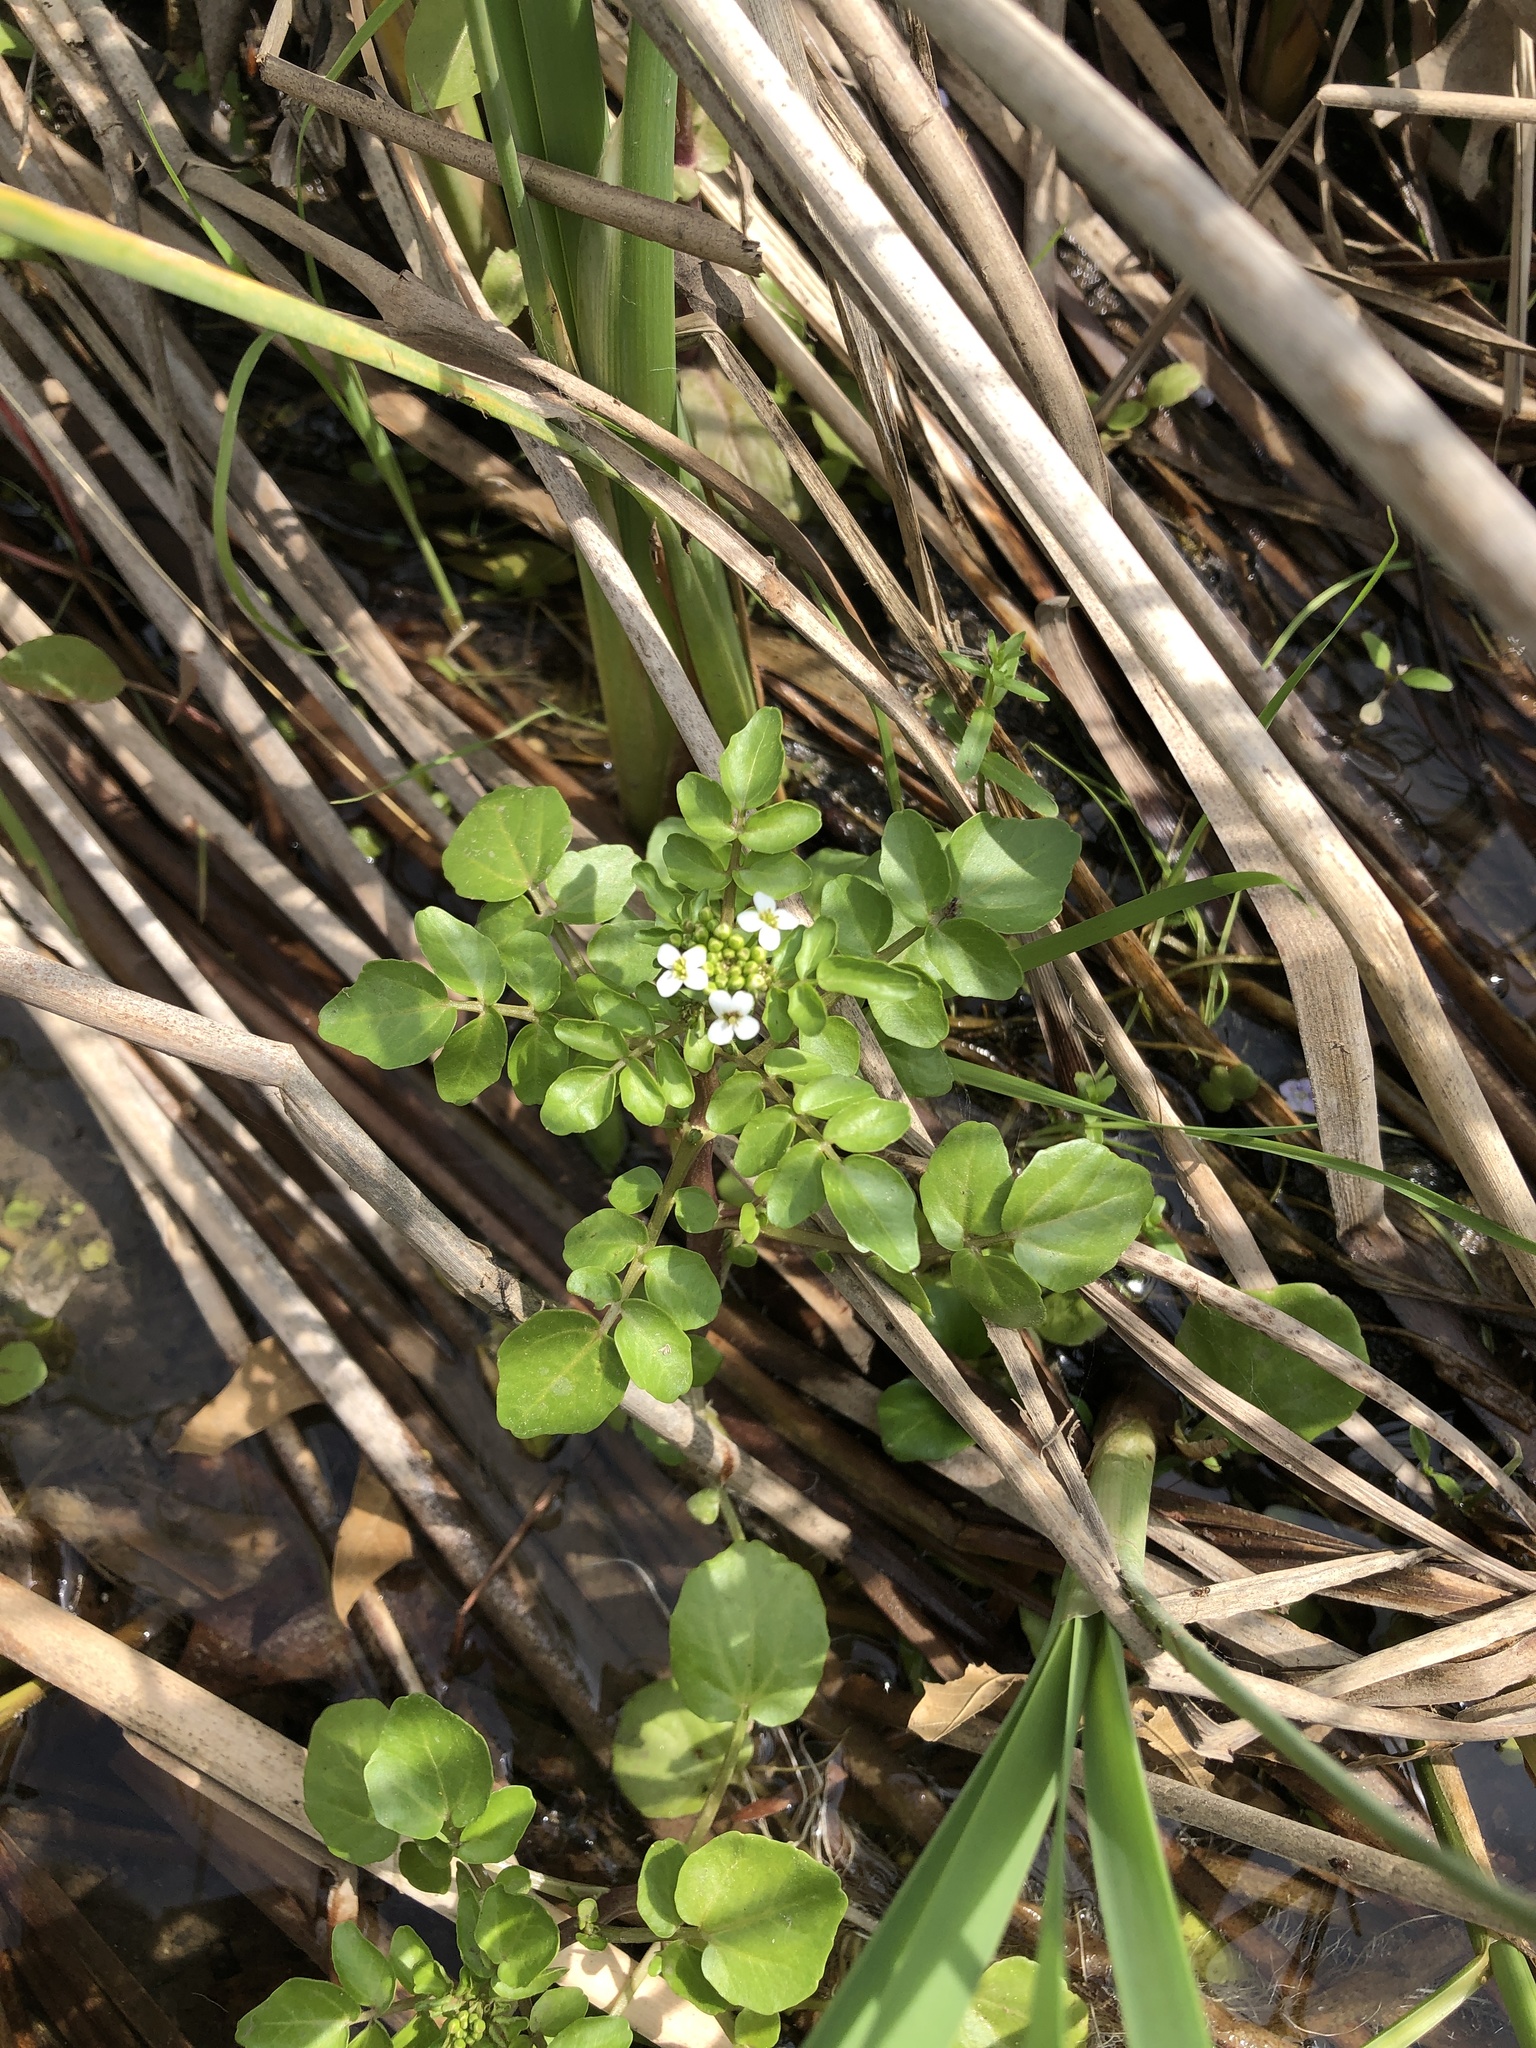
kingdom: Plantae
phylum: Tracheophyta
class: Magnoliopsida
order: Brassicales
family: Brassicaceae
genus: Nasturtium
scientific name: Nasturtium officinale
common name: Watercress
